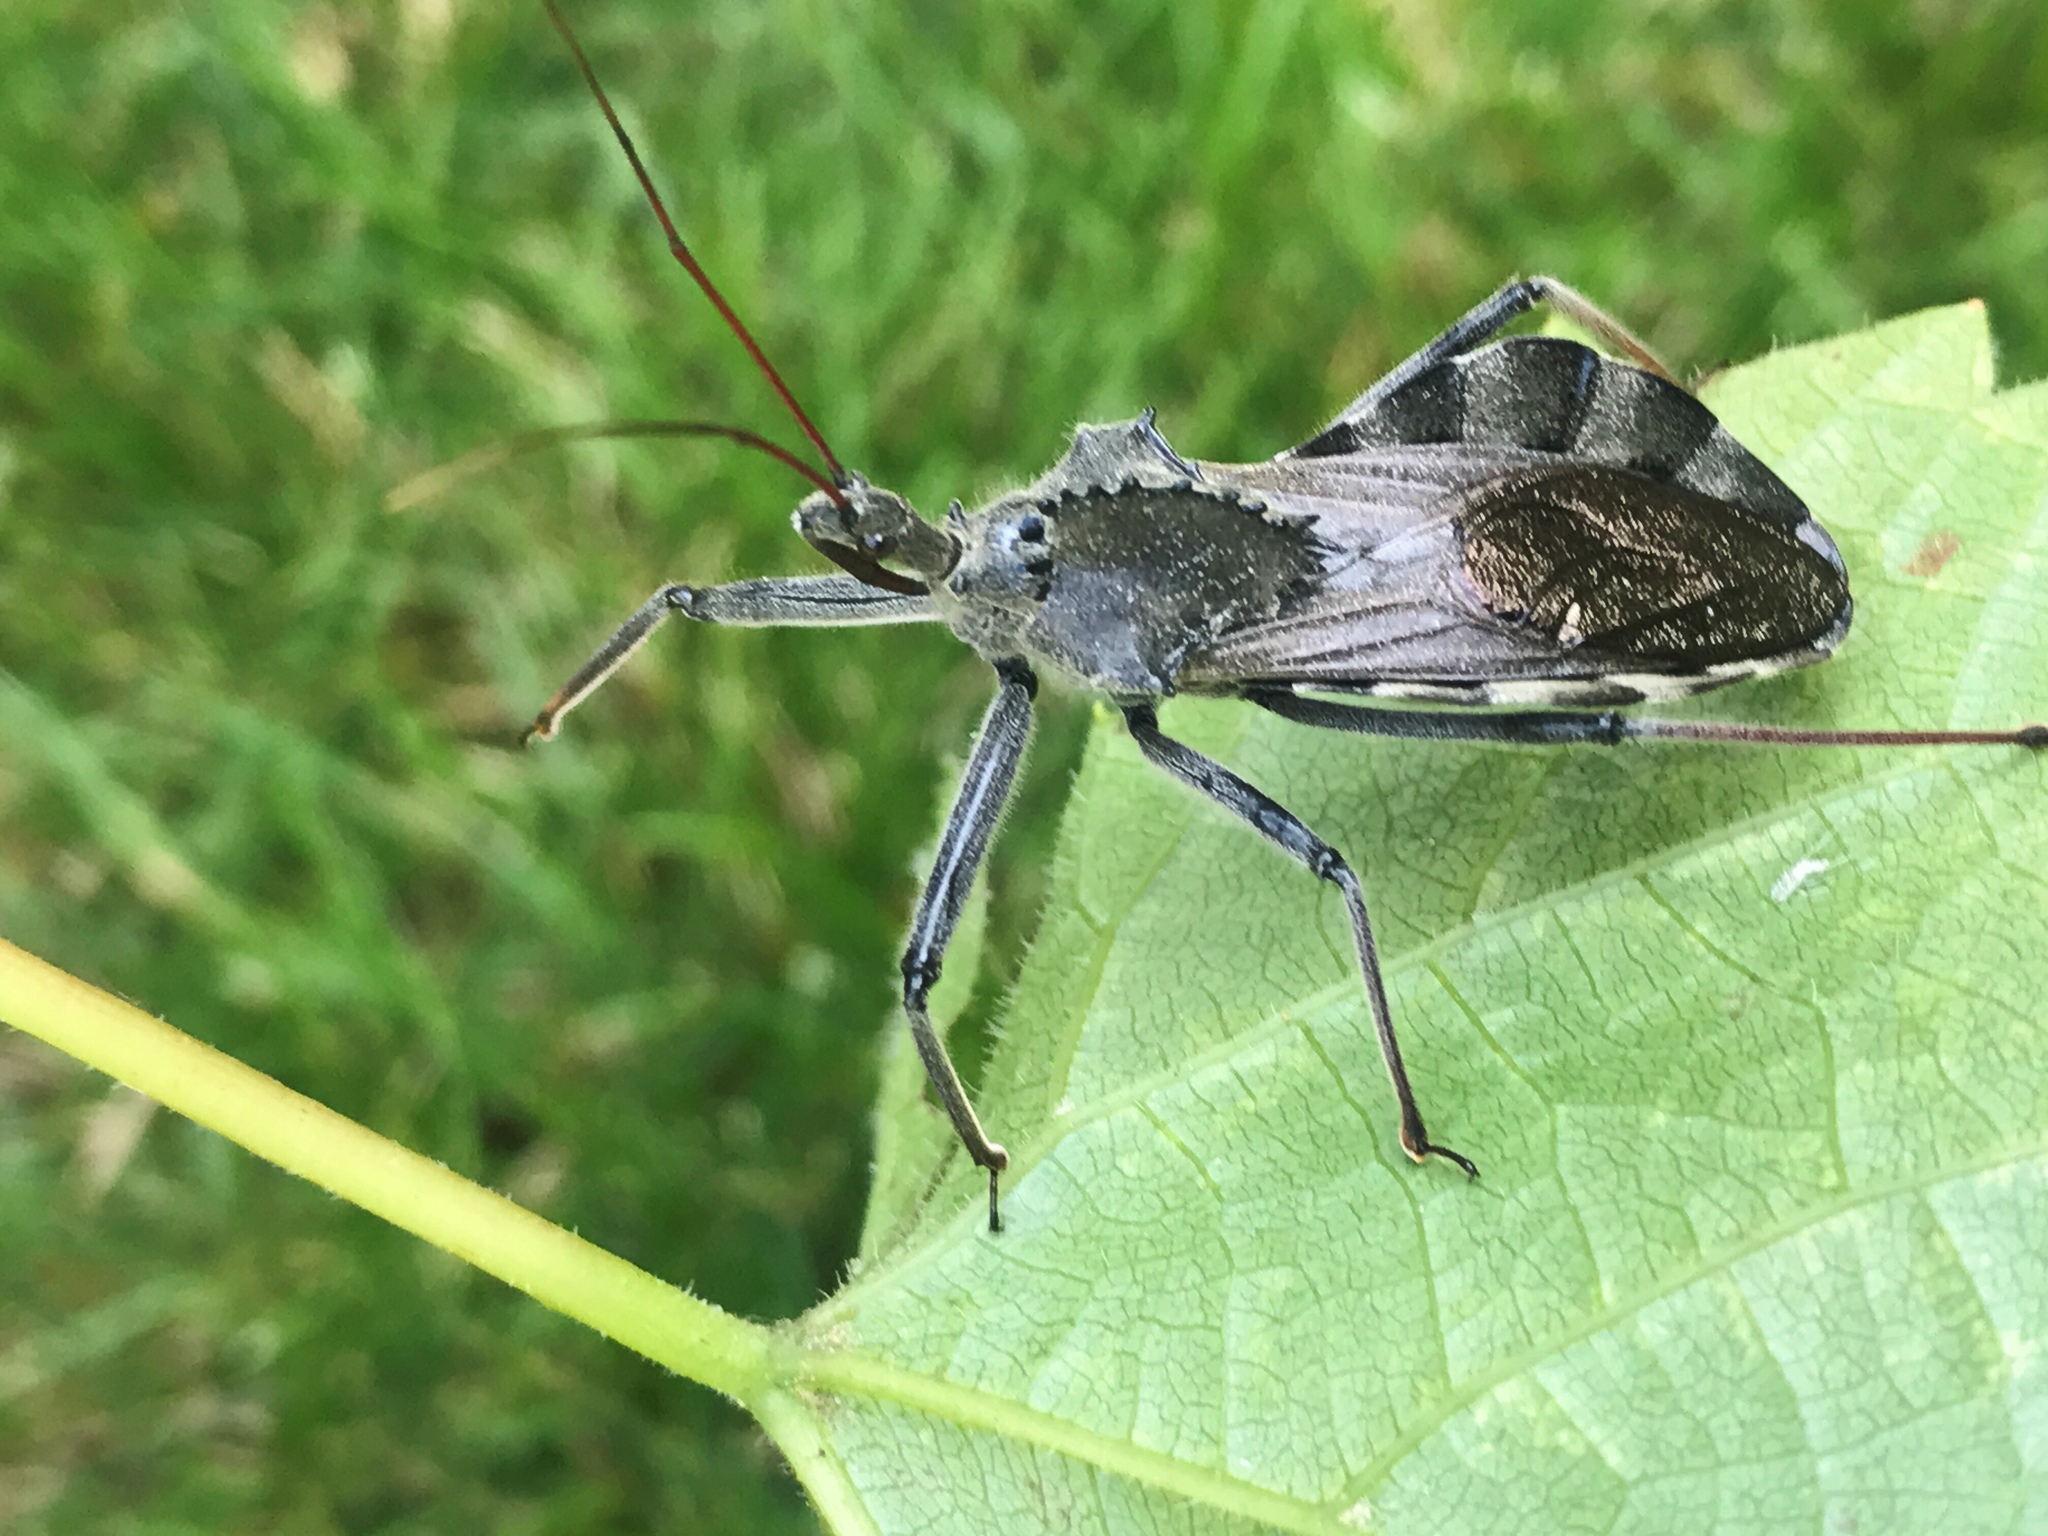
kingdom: Animalia
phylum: Arthropoda
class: Insecta
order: Hemiptera
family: Reduviidae
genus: Arilus
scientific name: Arilus cristatus
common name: North american wheel bug
